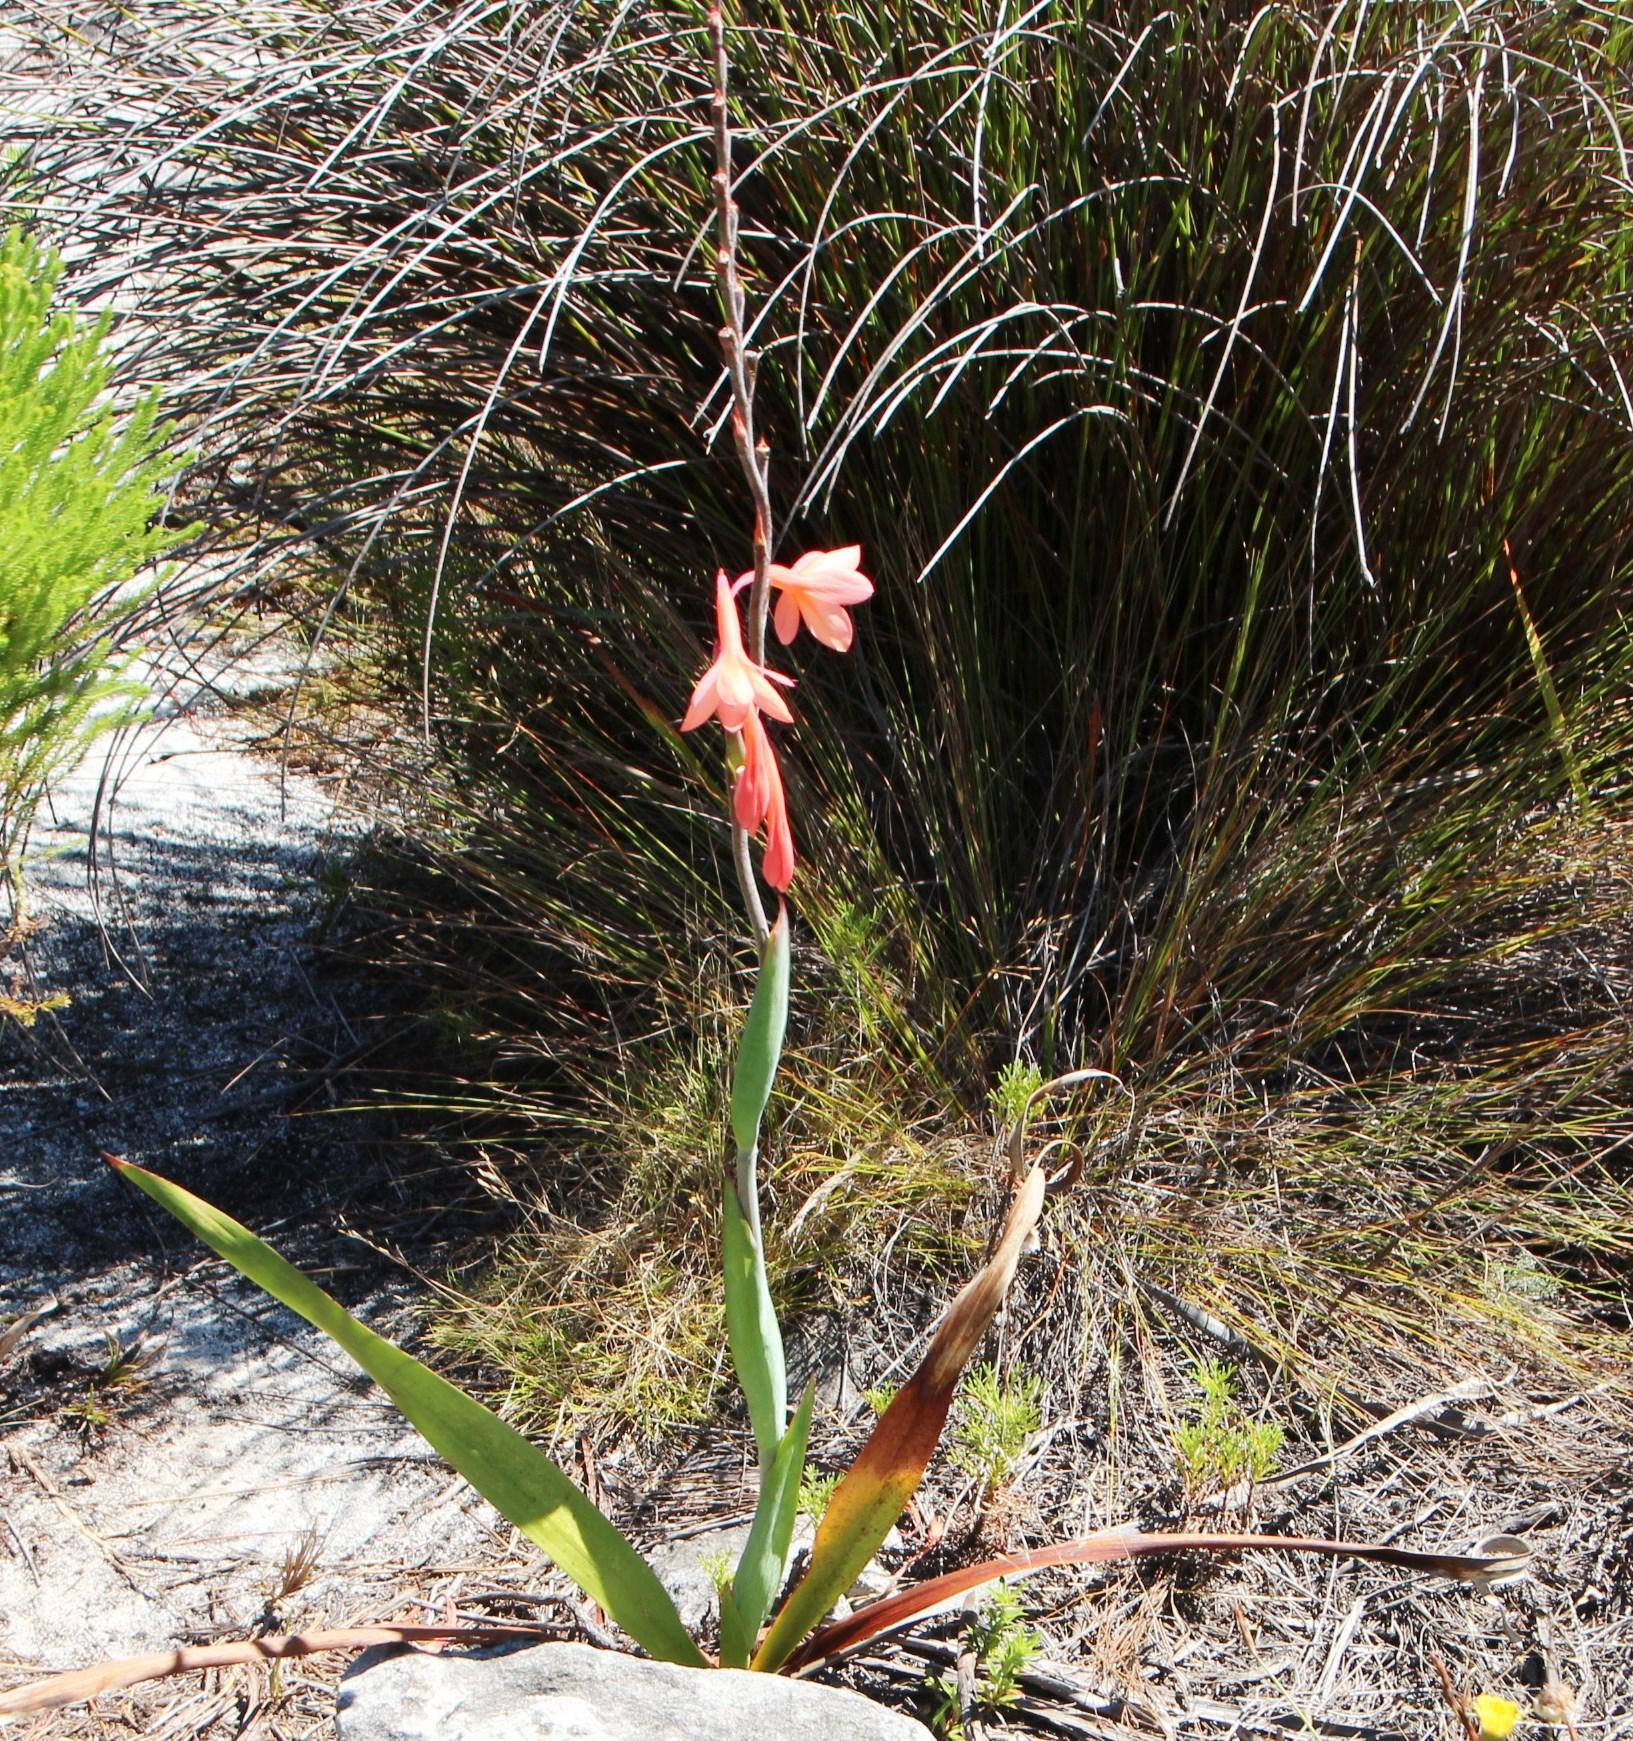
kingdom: Plantae
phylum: Tracheophyta
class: Liliopsida
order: Asparagales
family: Iridaceae
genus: Watsonia
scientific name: Watsonia tabularis
